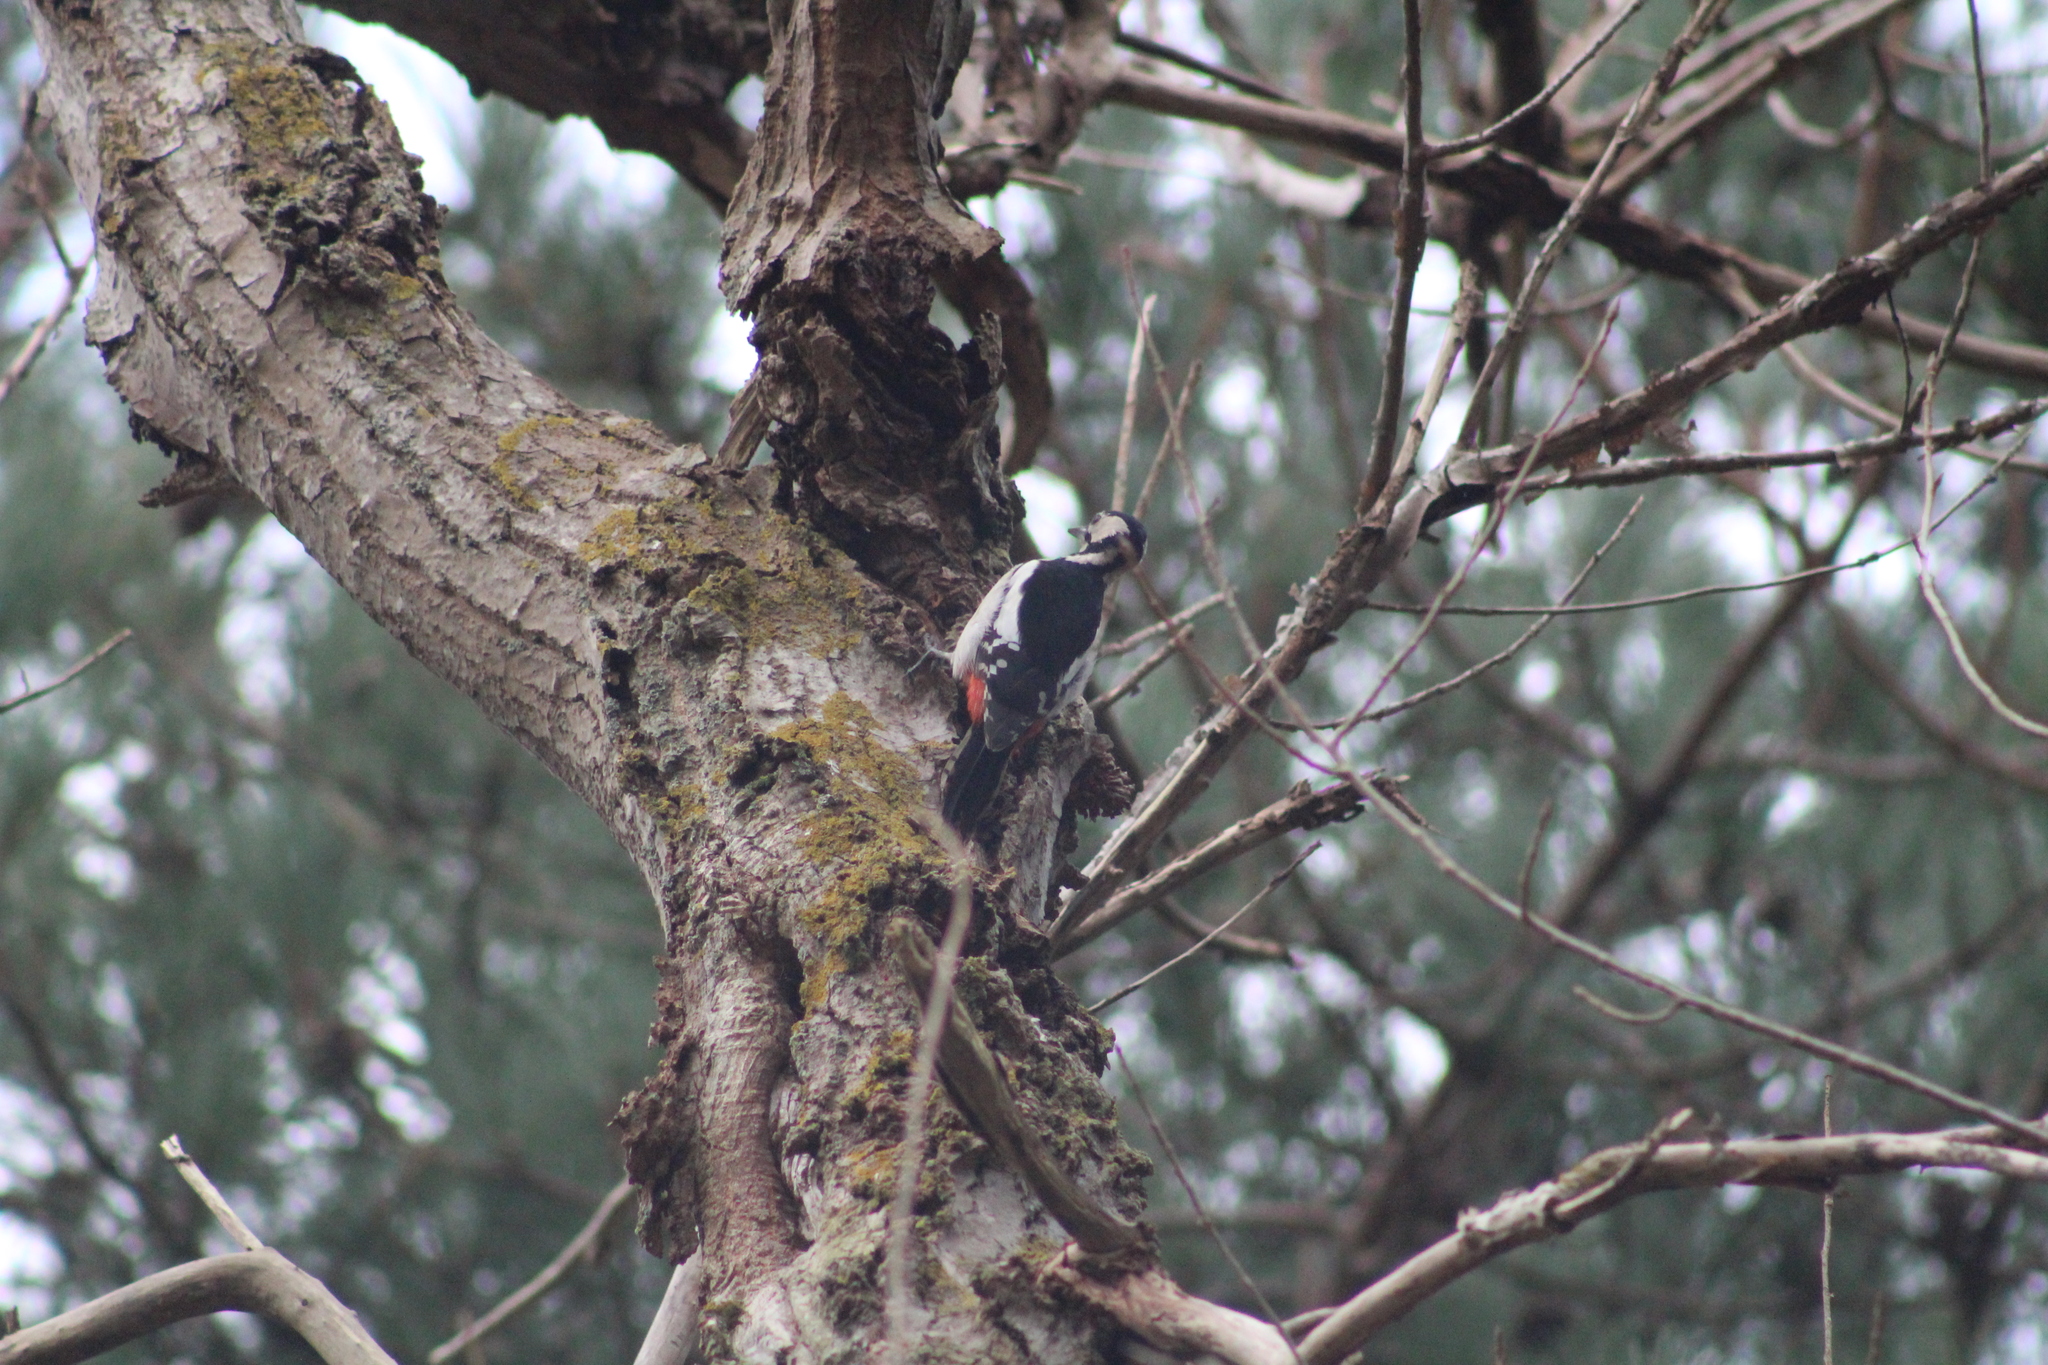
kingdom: Animalia
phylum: Chordata
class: Aves
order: Piciformes
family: Picidae
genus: Dendrocopos
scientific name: Dendrocopos major
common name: Great spotted woodpecker
